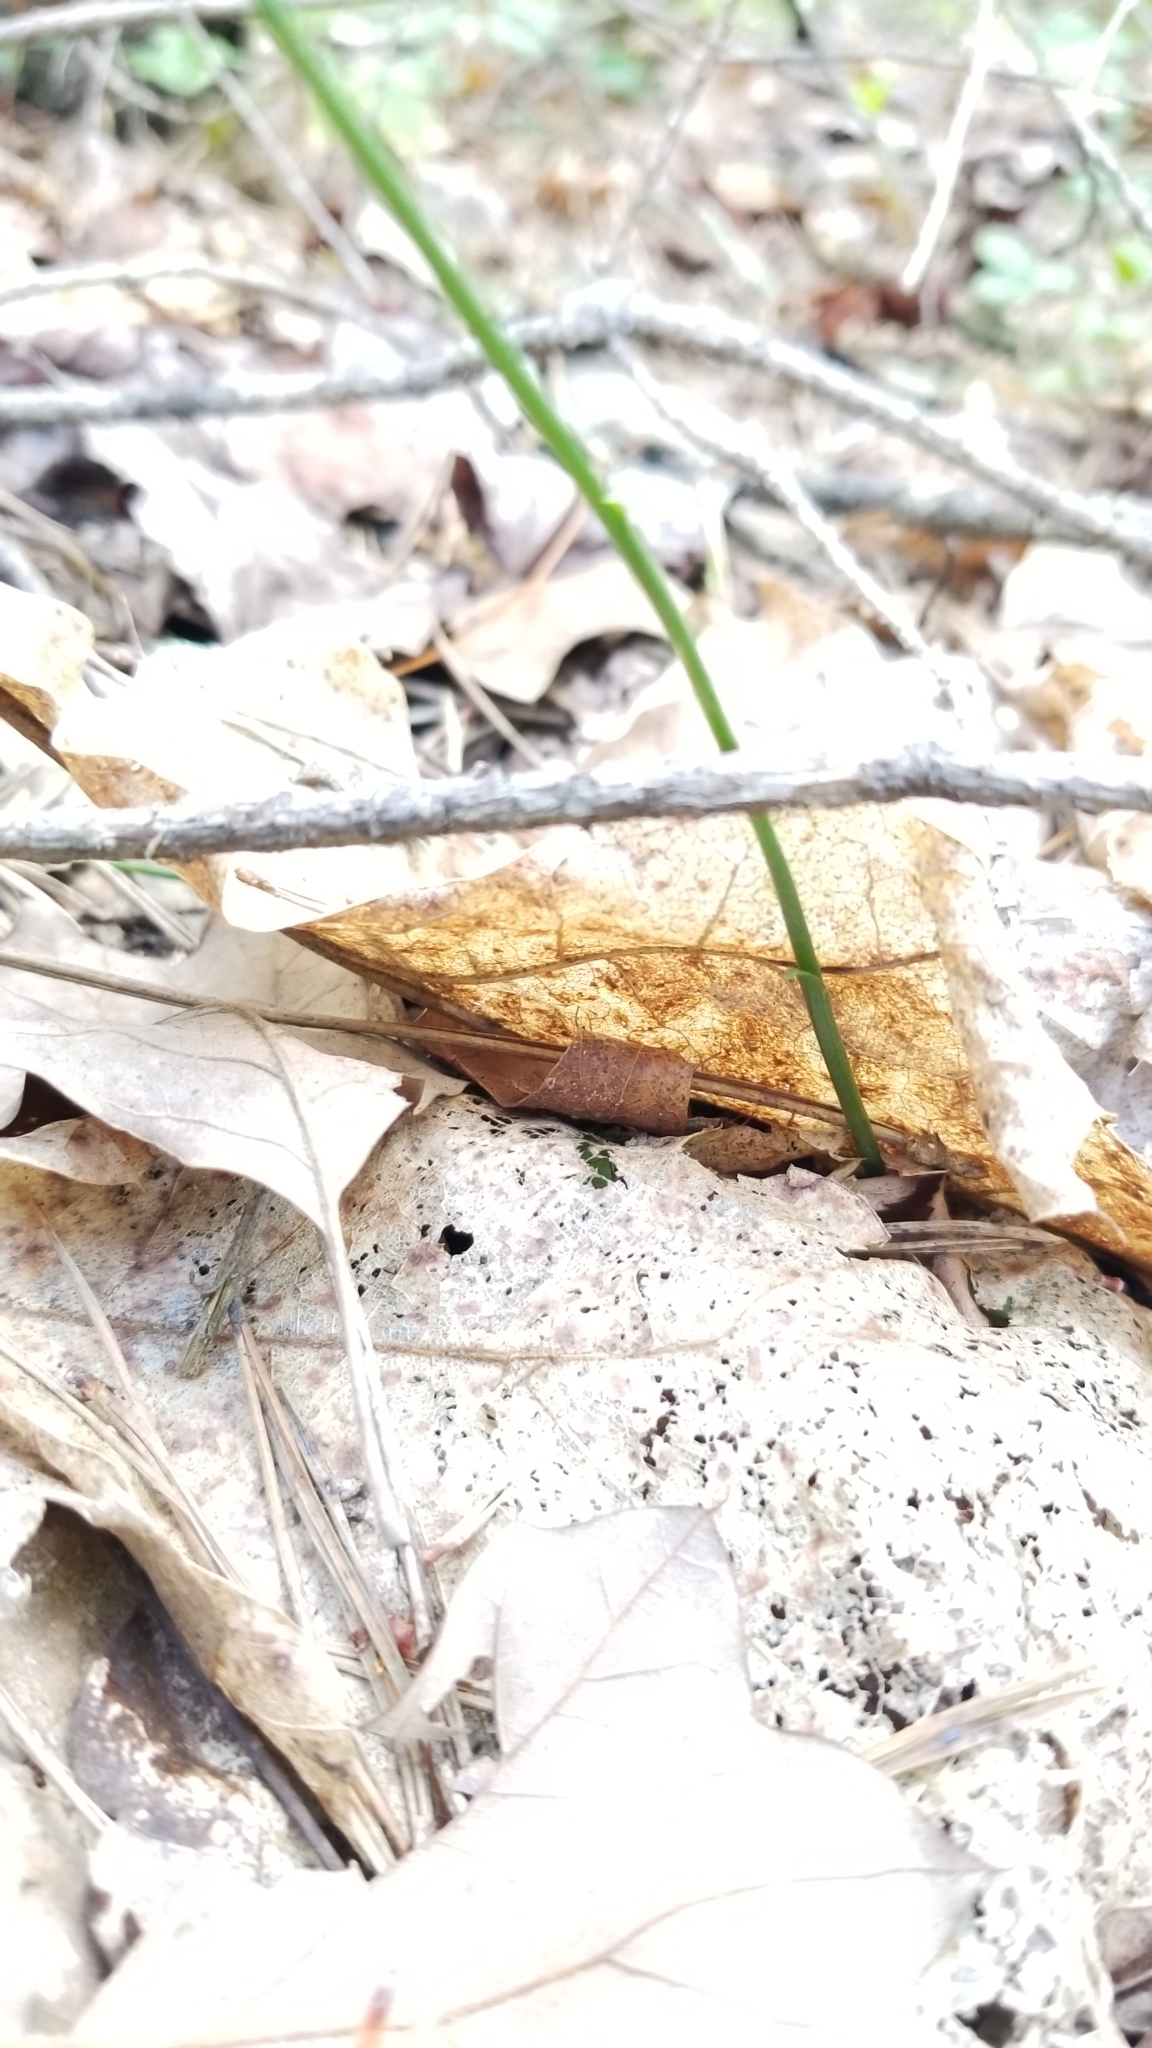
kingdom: Plantae
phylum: Tracheophyta
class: Liliopsida
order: Asparagales
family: Orchidaceae
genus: Spiranthes
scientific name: Spiranthes lacera
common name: Northern slender ladies'-tresses
